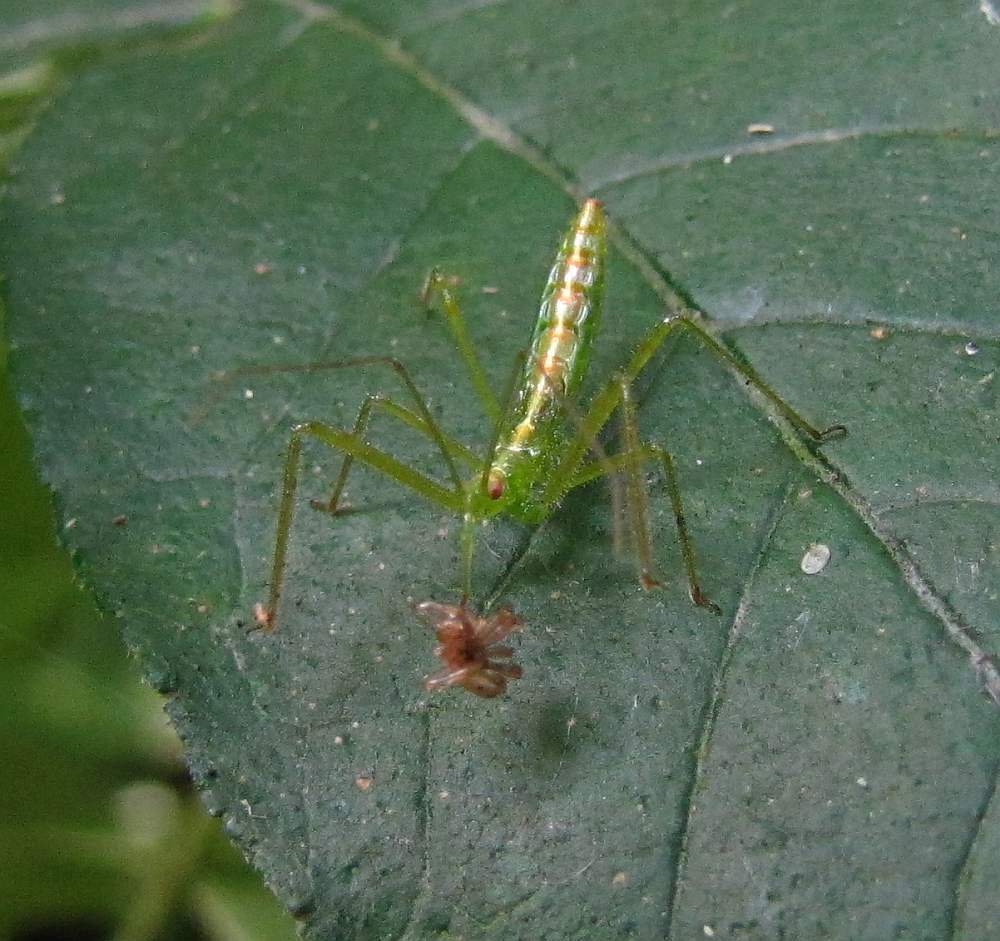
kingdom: Animalia
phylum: Arthropoda
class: Insecta
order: Hemiptera
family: Reduviidae
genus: Zelus
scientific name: Zelus luridus
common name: Pale green assassin bug
